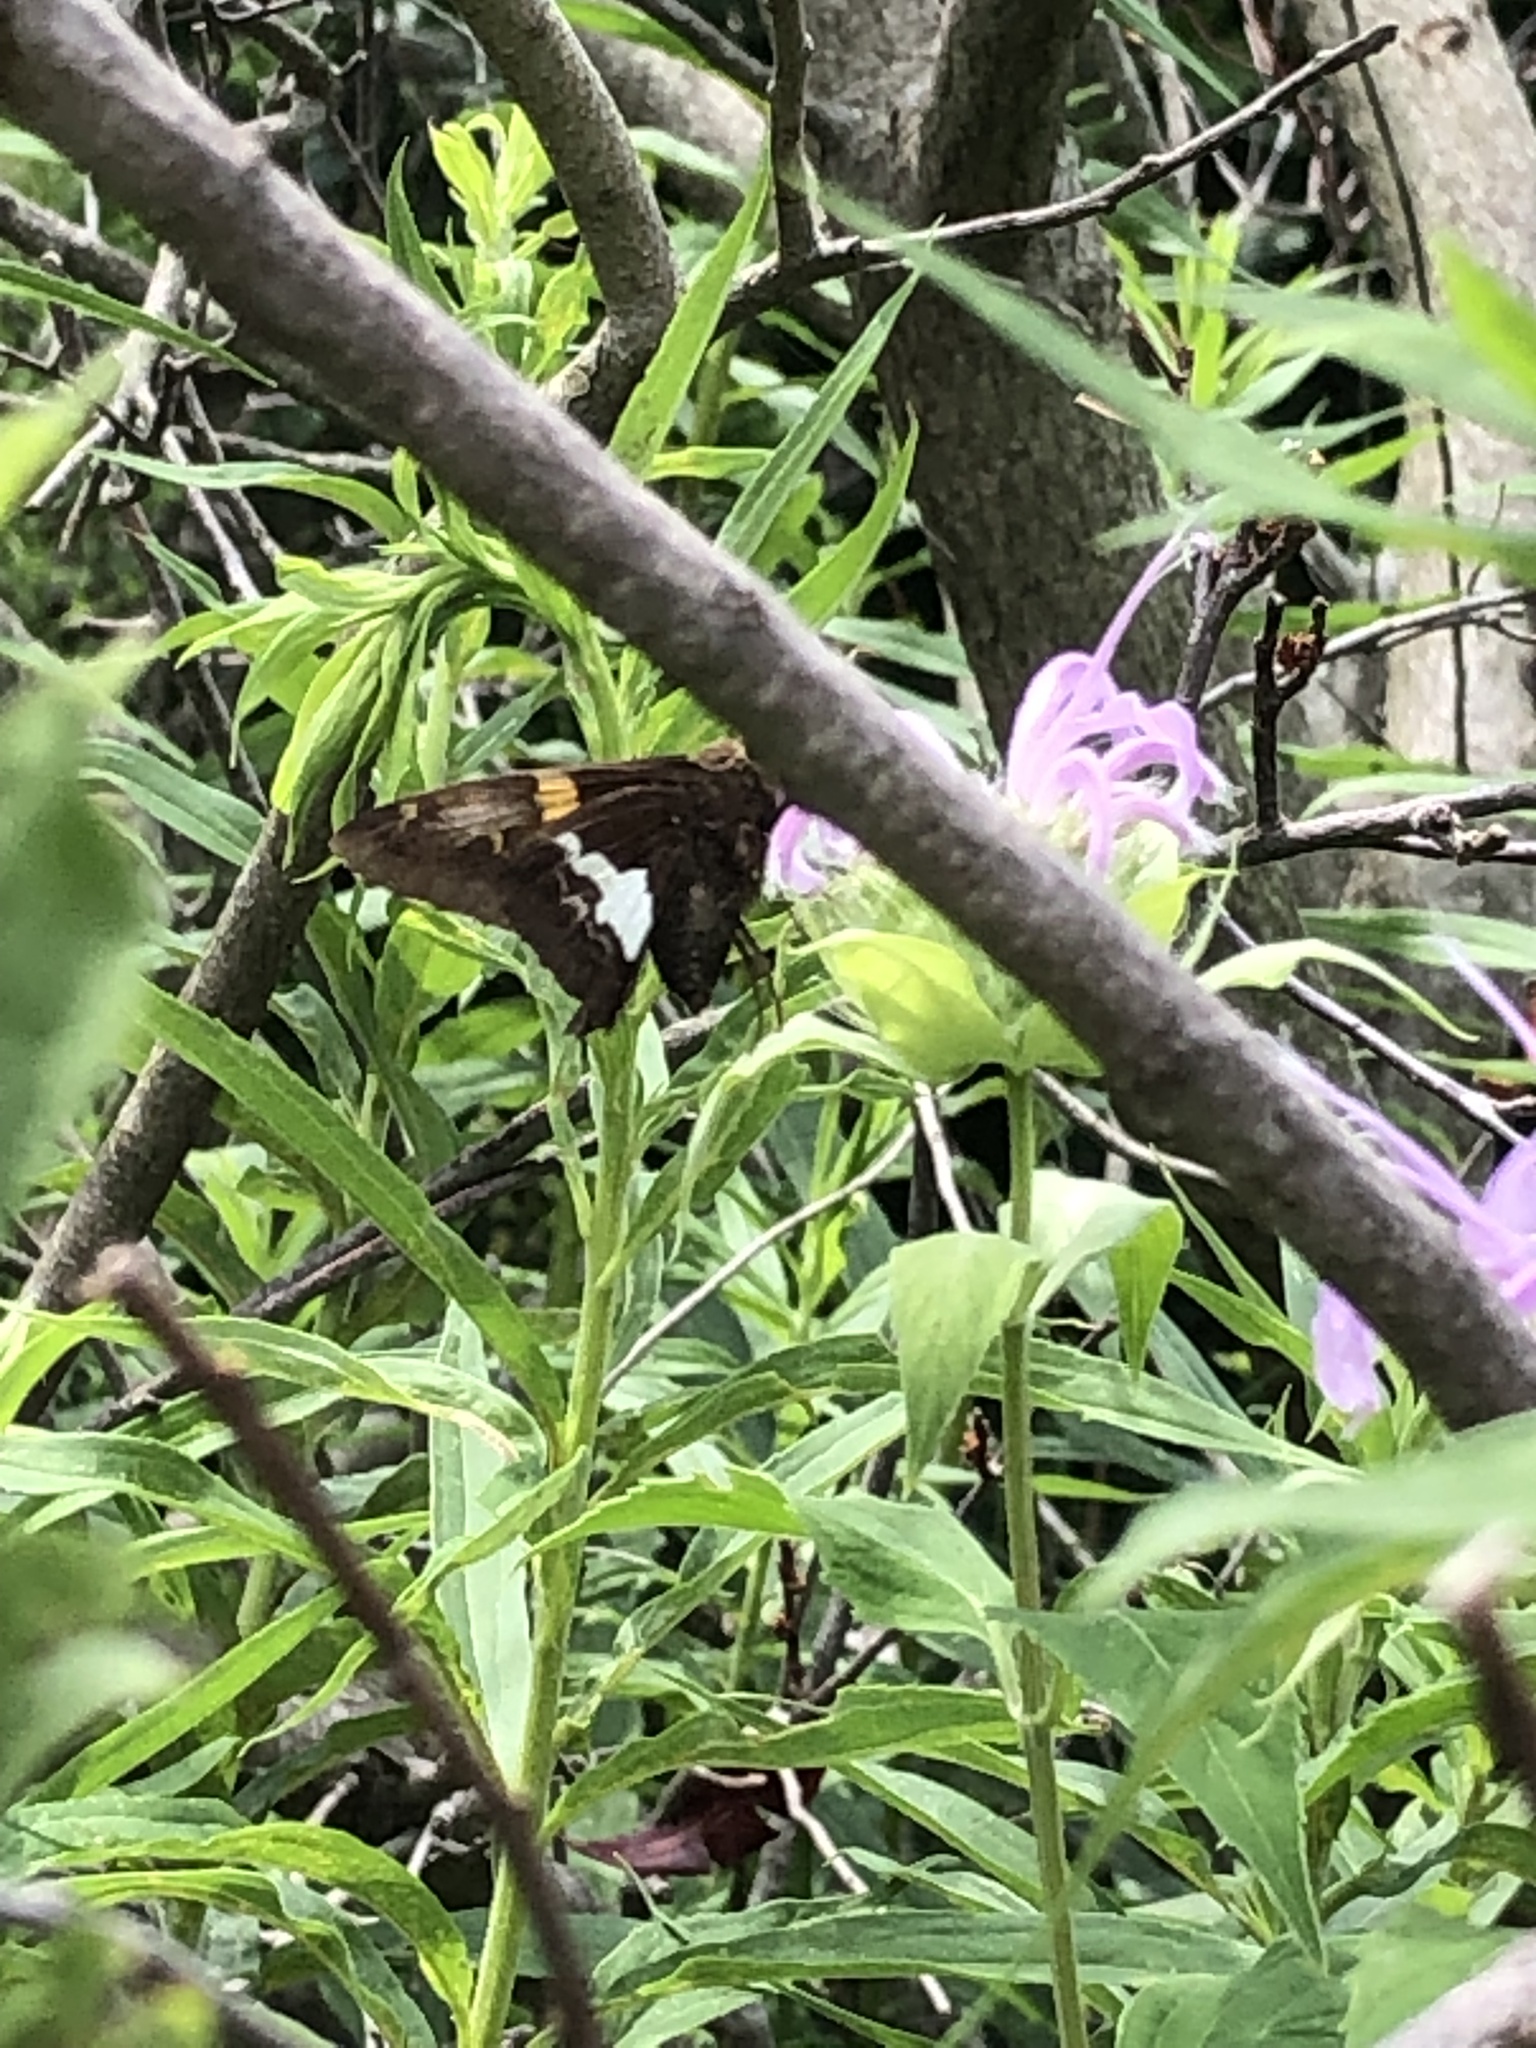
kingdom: Animalia
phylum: Arthropoda
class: Insecta
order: Lepidoptera
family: Hesperiidae
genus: Epargyreus
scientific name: Epargyreus clarus
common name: Silver-spotted skipper
